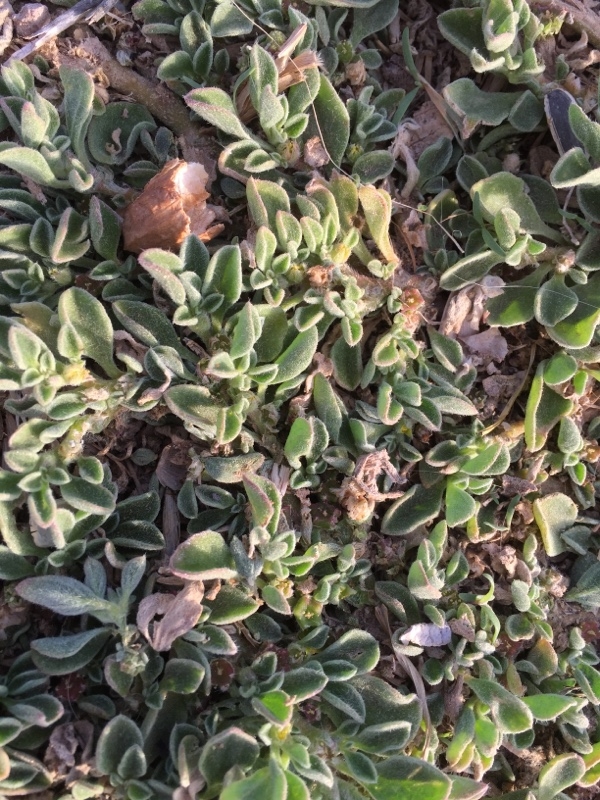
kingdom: Plantae
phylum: Tracheophyta
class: Magnoliopsida
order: Caryophyllales
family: Aizoaceae
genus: Aizoon
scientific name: Aizoon canariense
